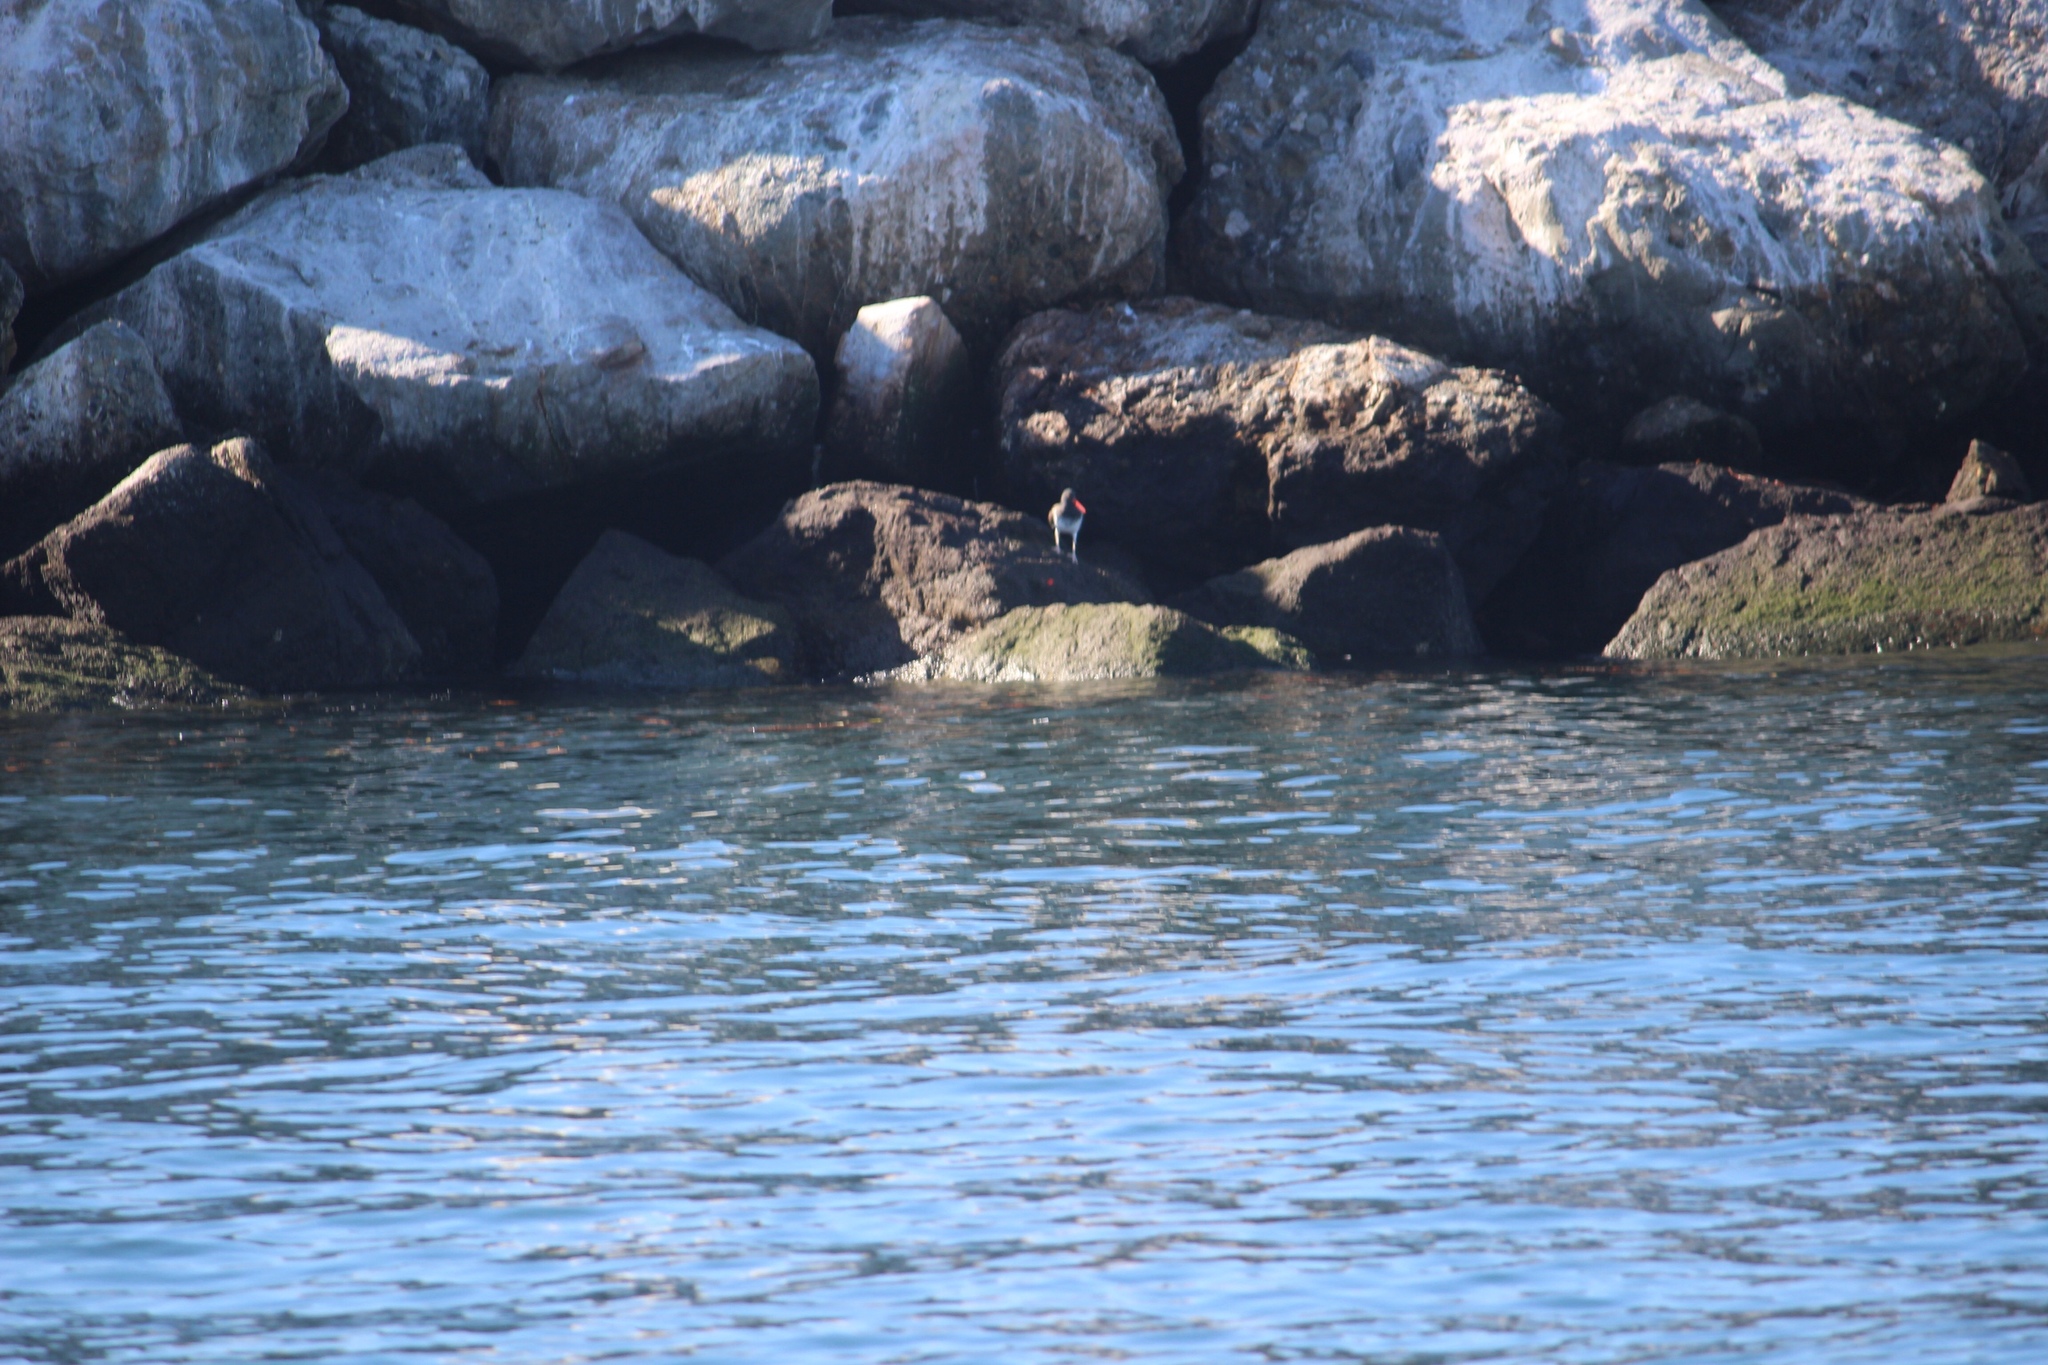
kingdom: Animalia
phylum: Chordata
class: Aves
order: Charadriiformes
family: Haematopodidae
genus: Haematopus
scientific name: Haematopus palliatus
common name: American oystercatcher
